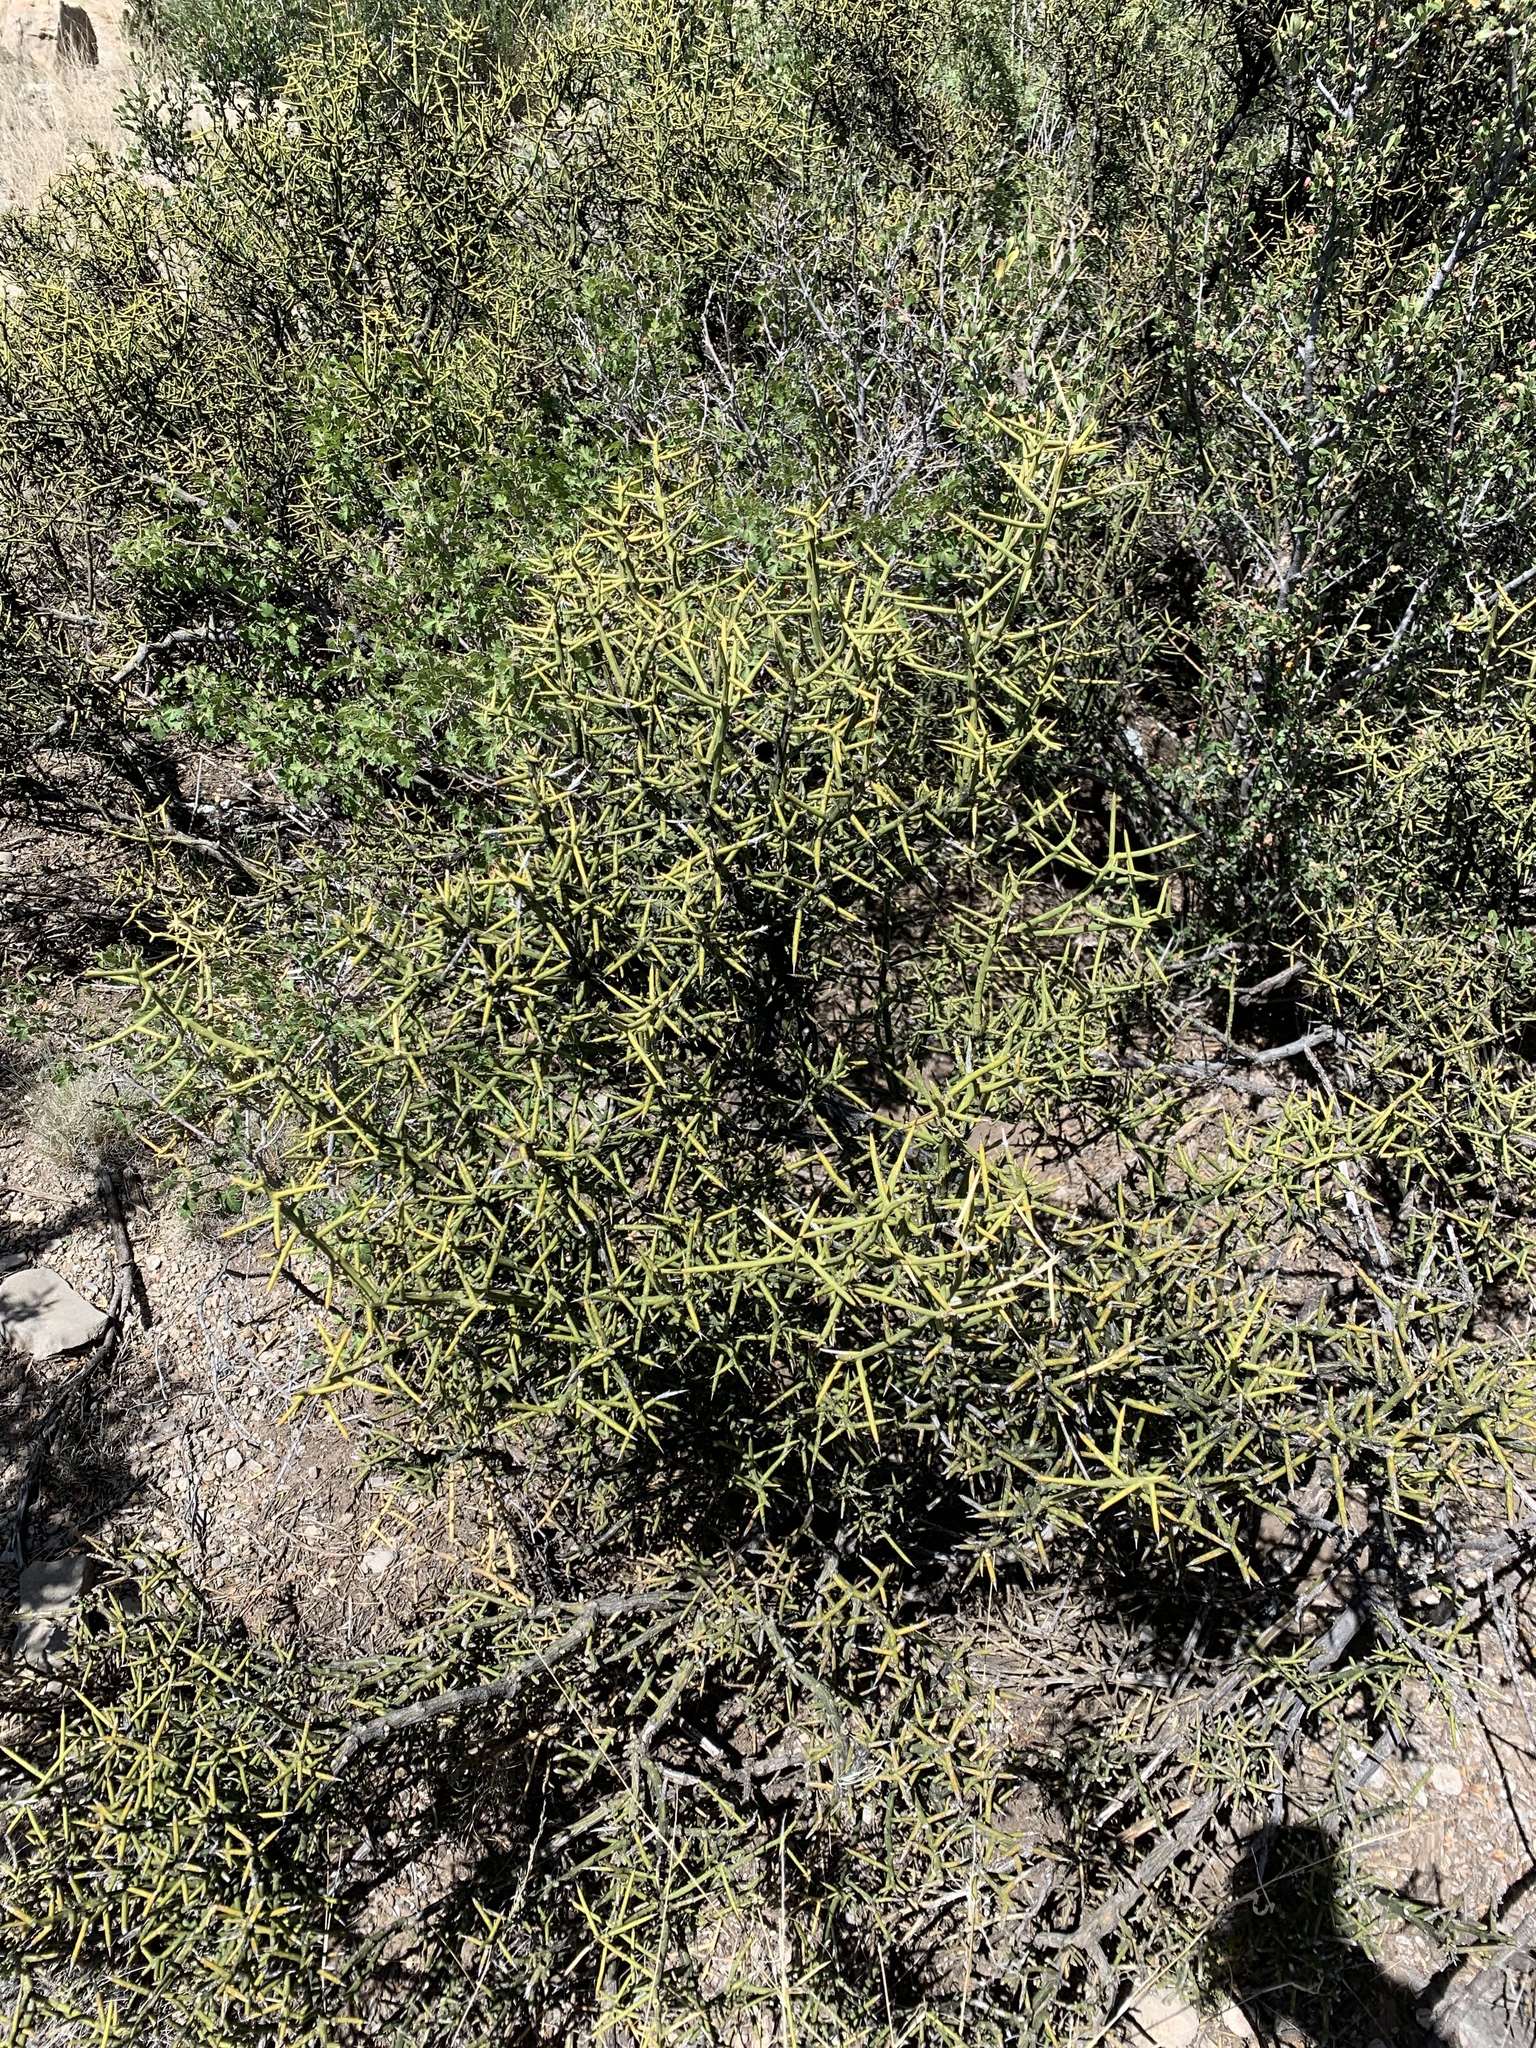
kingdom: Plantae
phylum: Tracheophyta
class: Magnoliopsida
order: Brassicales
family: Koeberliniaceae
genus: Koeberlinia
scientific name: Koeberlinia spinosa
